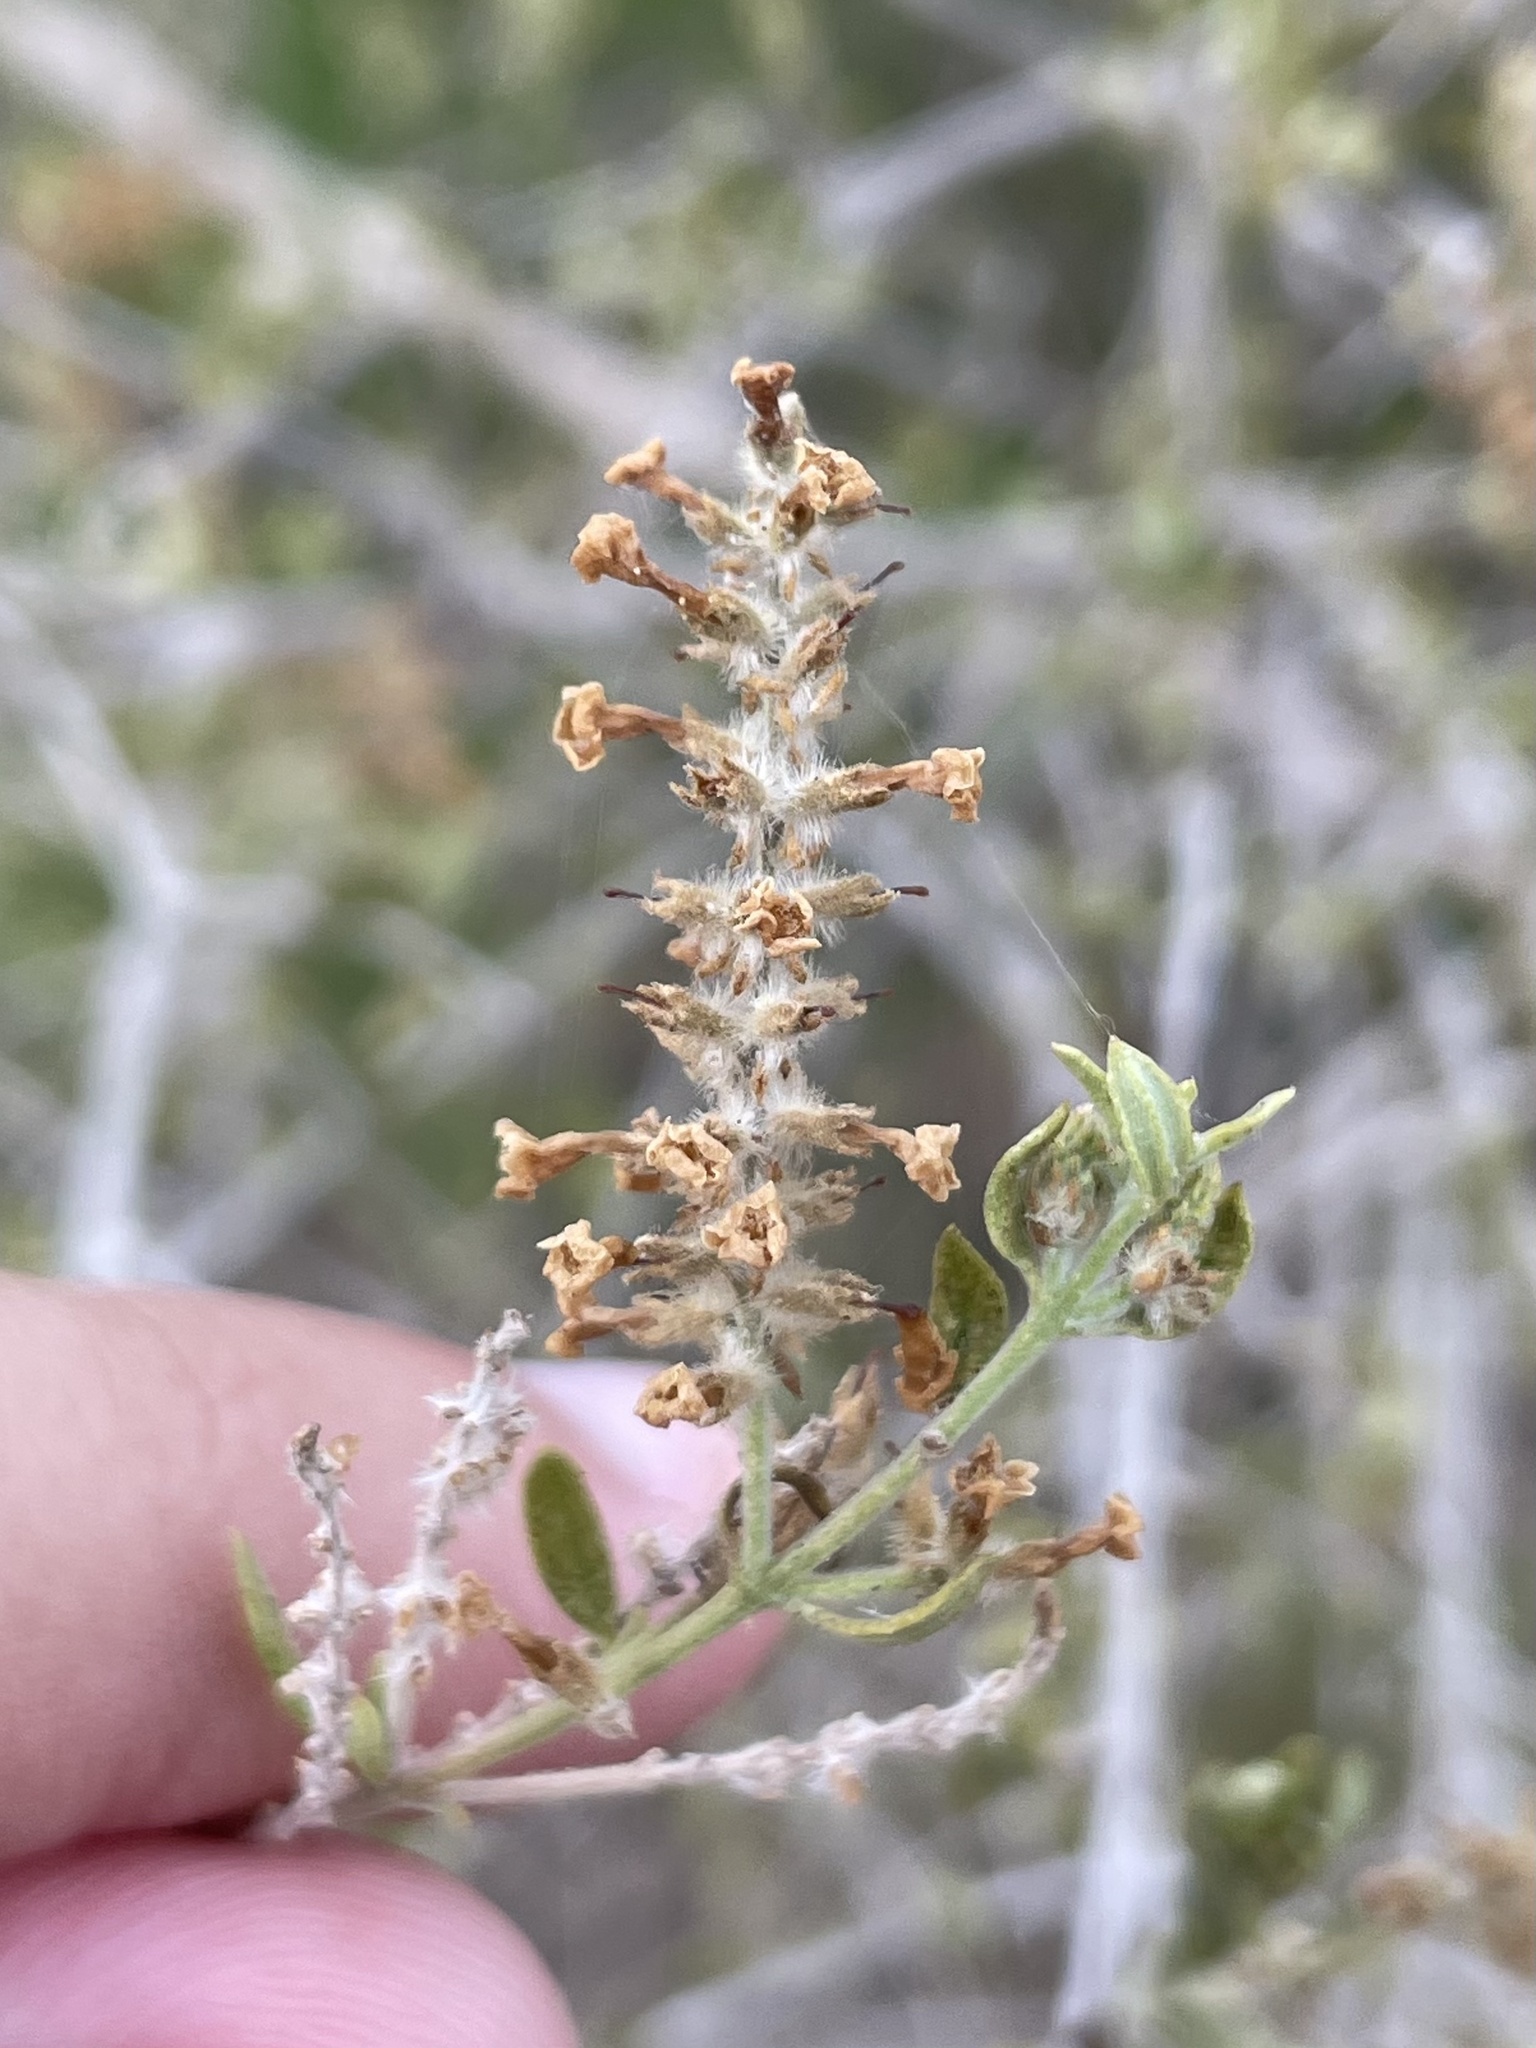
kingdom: Plantae
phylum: Tracheophyta
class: Magnoliopsida
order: Lamiales
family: Verbenaceae
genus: Aloysia
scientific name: Aloysia gratissima
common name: Common bee-brush
